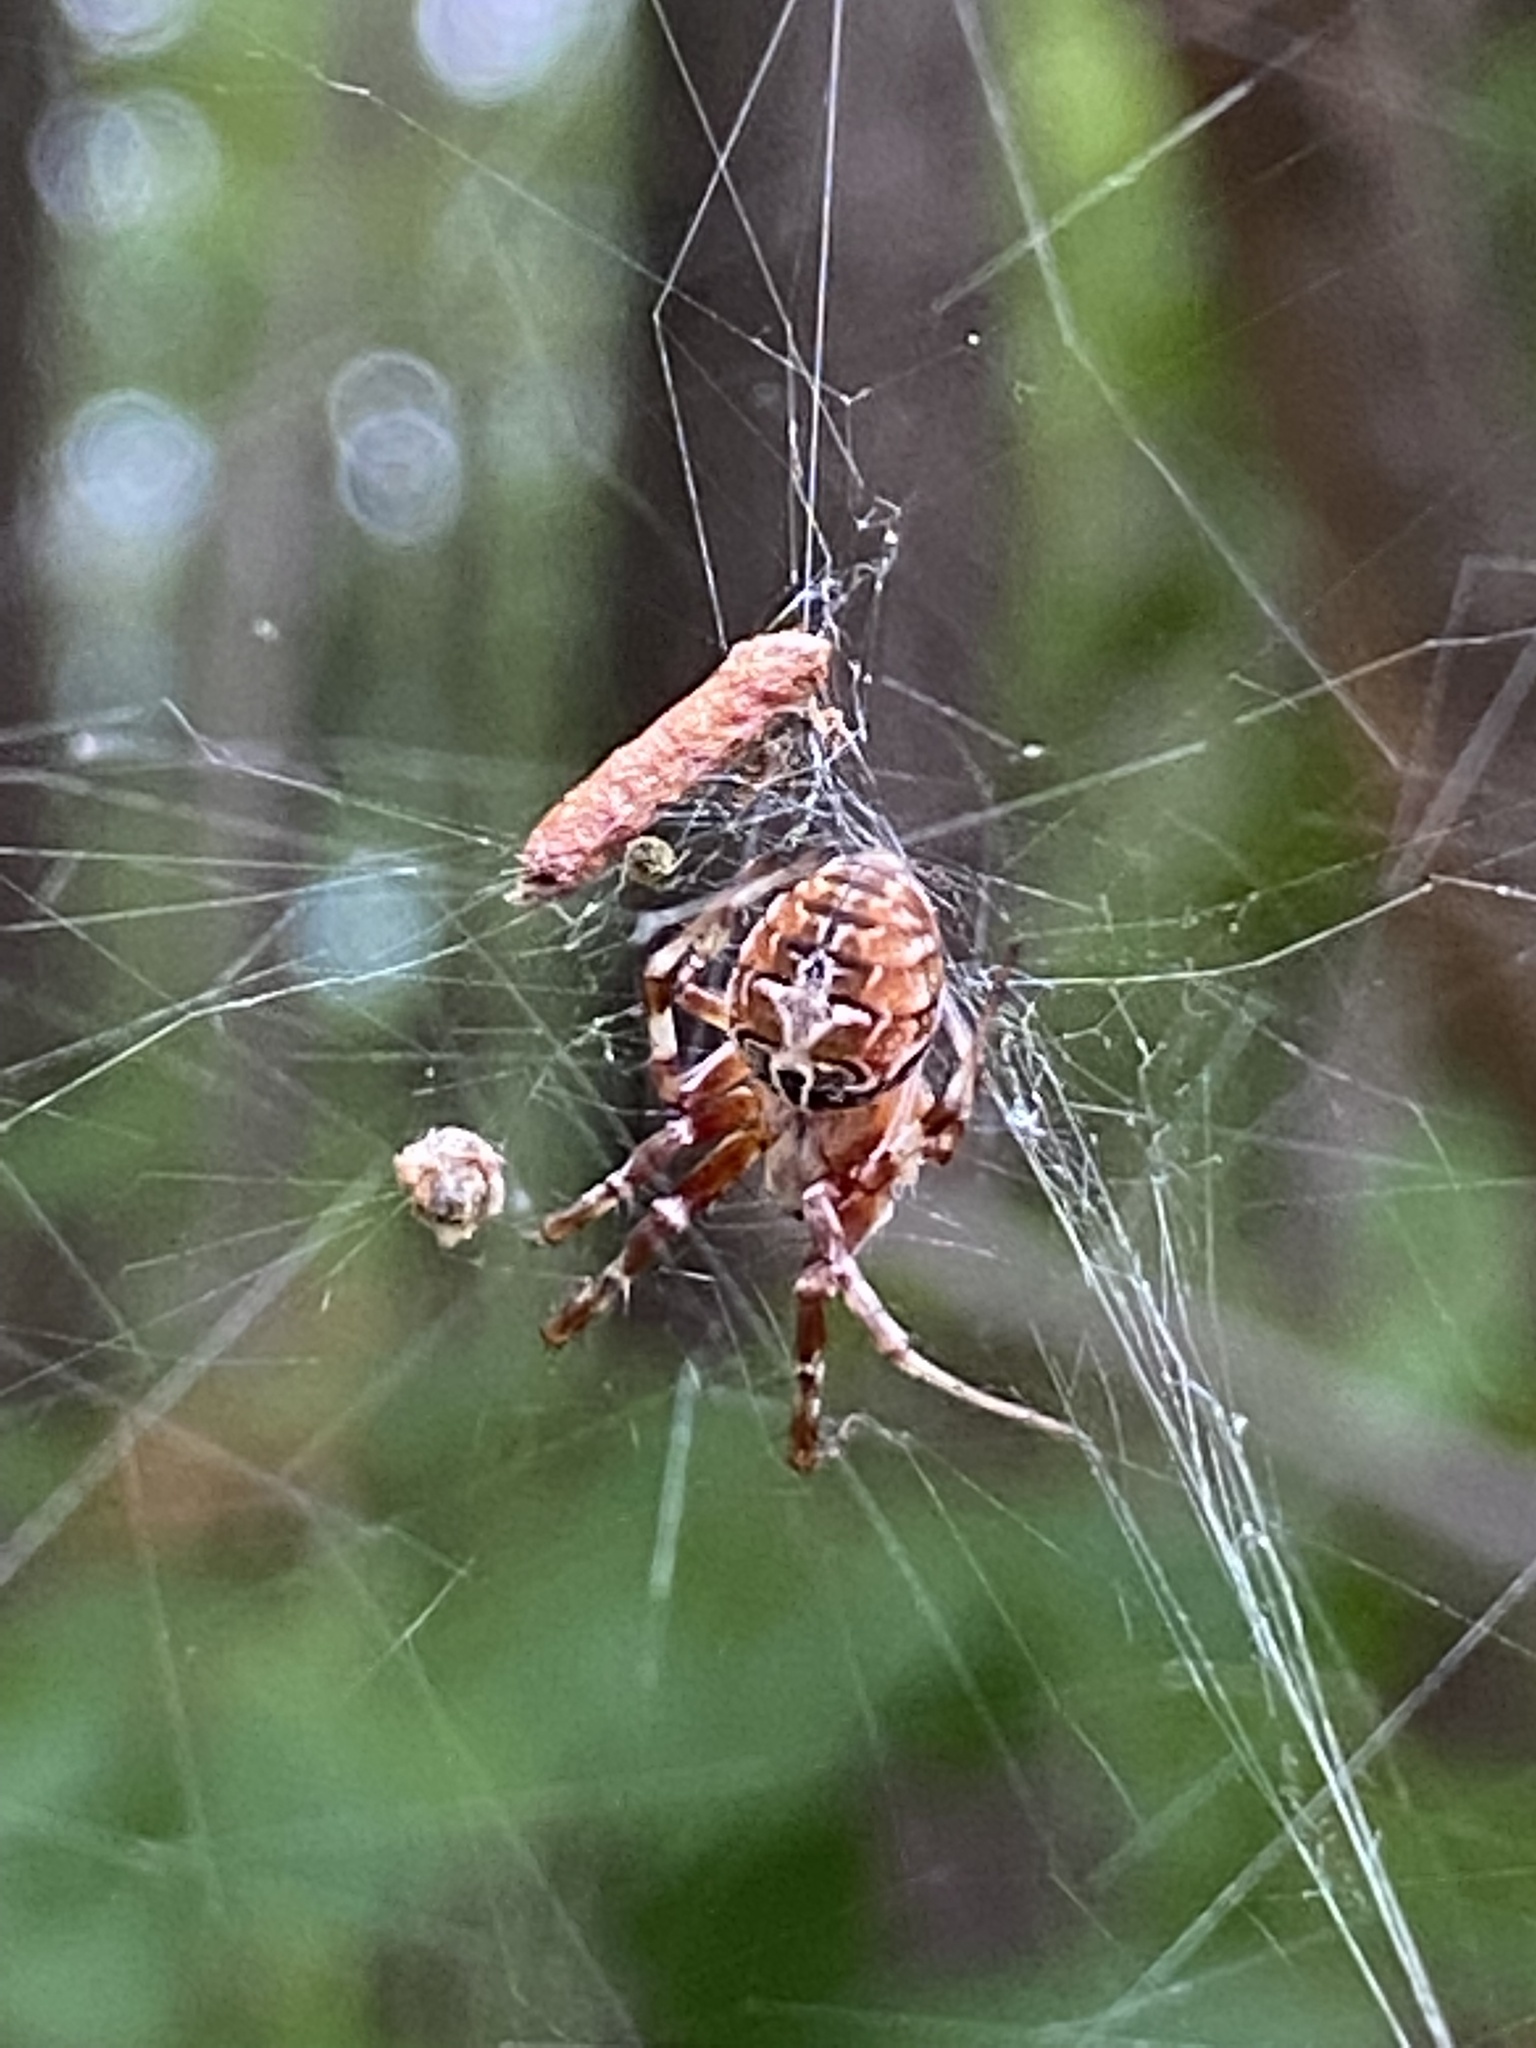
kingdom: Animalia
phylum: Arthropoda
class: Arachnida
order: Araneae
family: Araneidae
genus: Metepeira
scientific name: Metepeira labyrinthea
